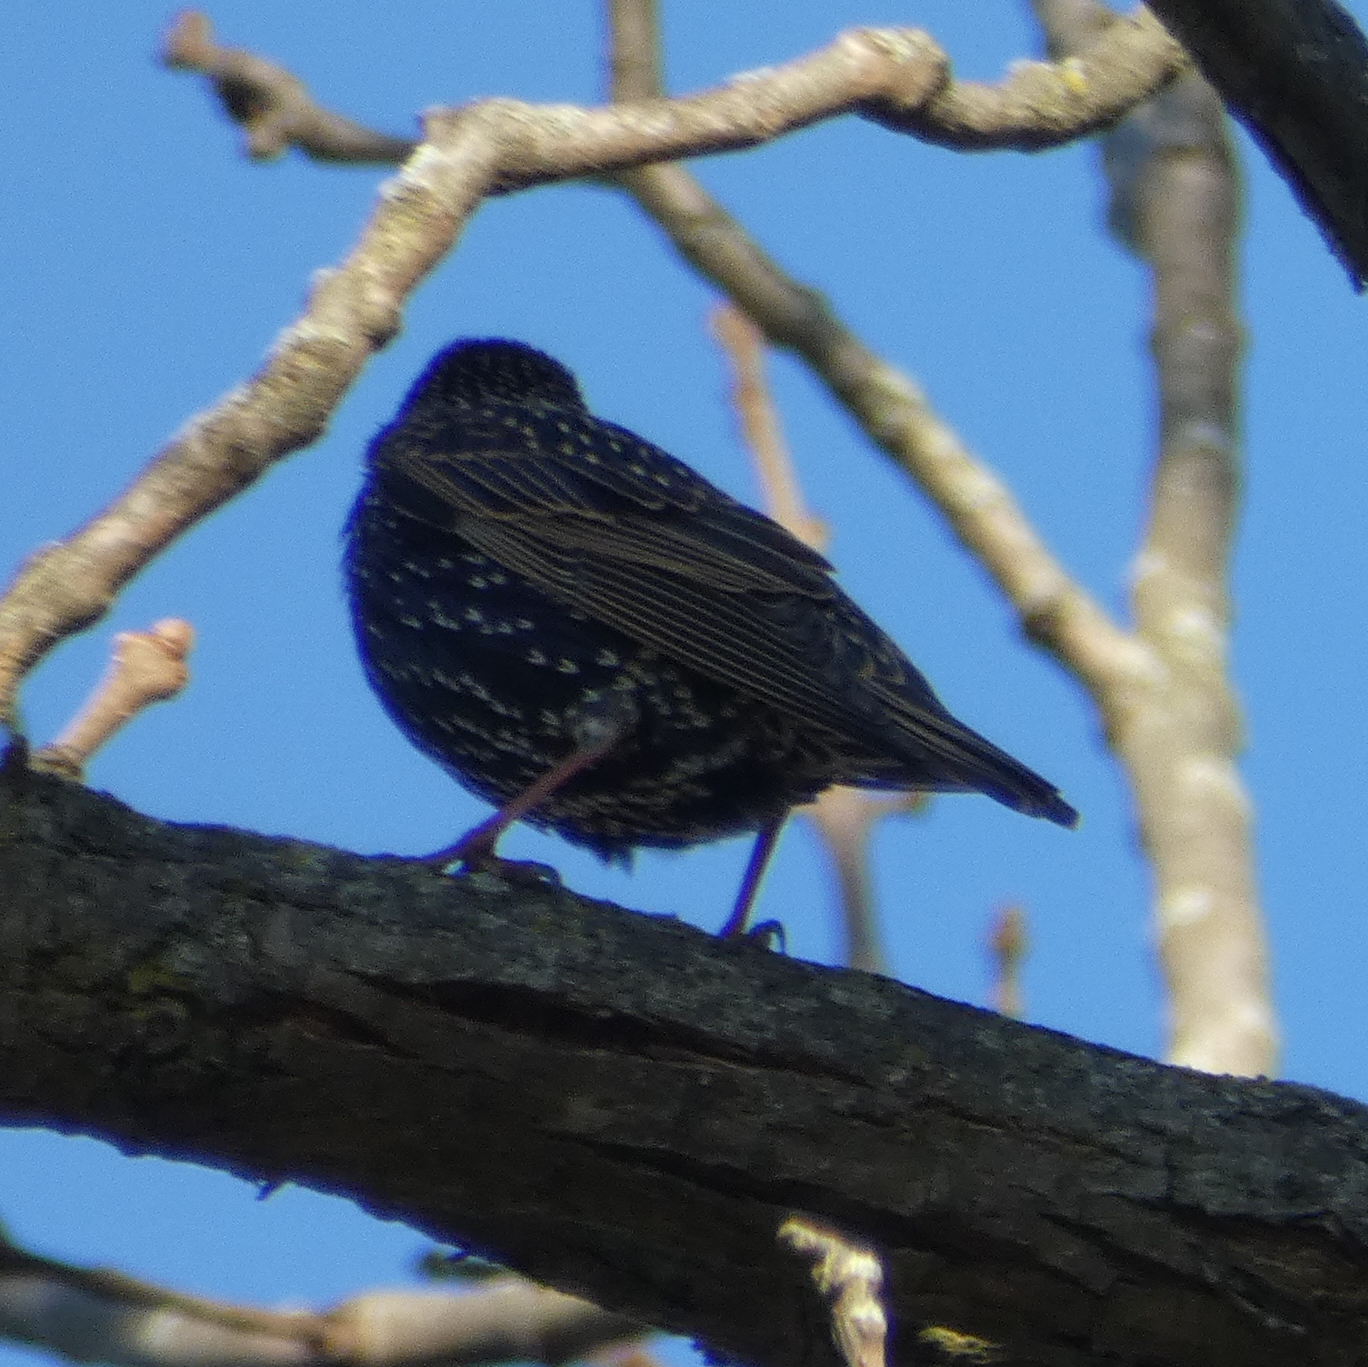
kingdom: Animalia
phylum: Chordata
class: Aves
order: Passeriformes
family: Sturnidae
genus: Sturnus
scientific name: Sturnus vulgaris
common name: Common starling
